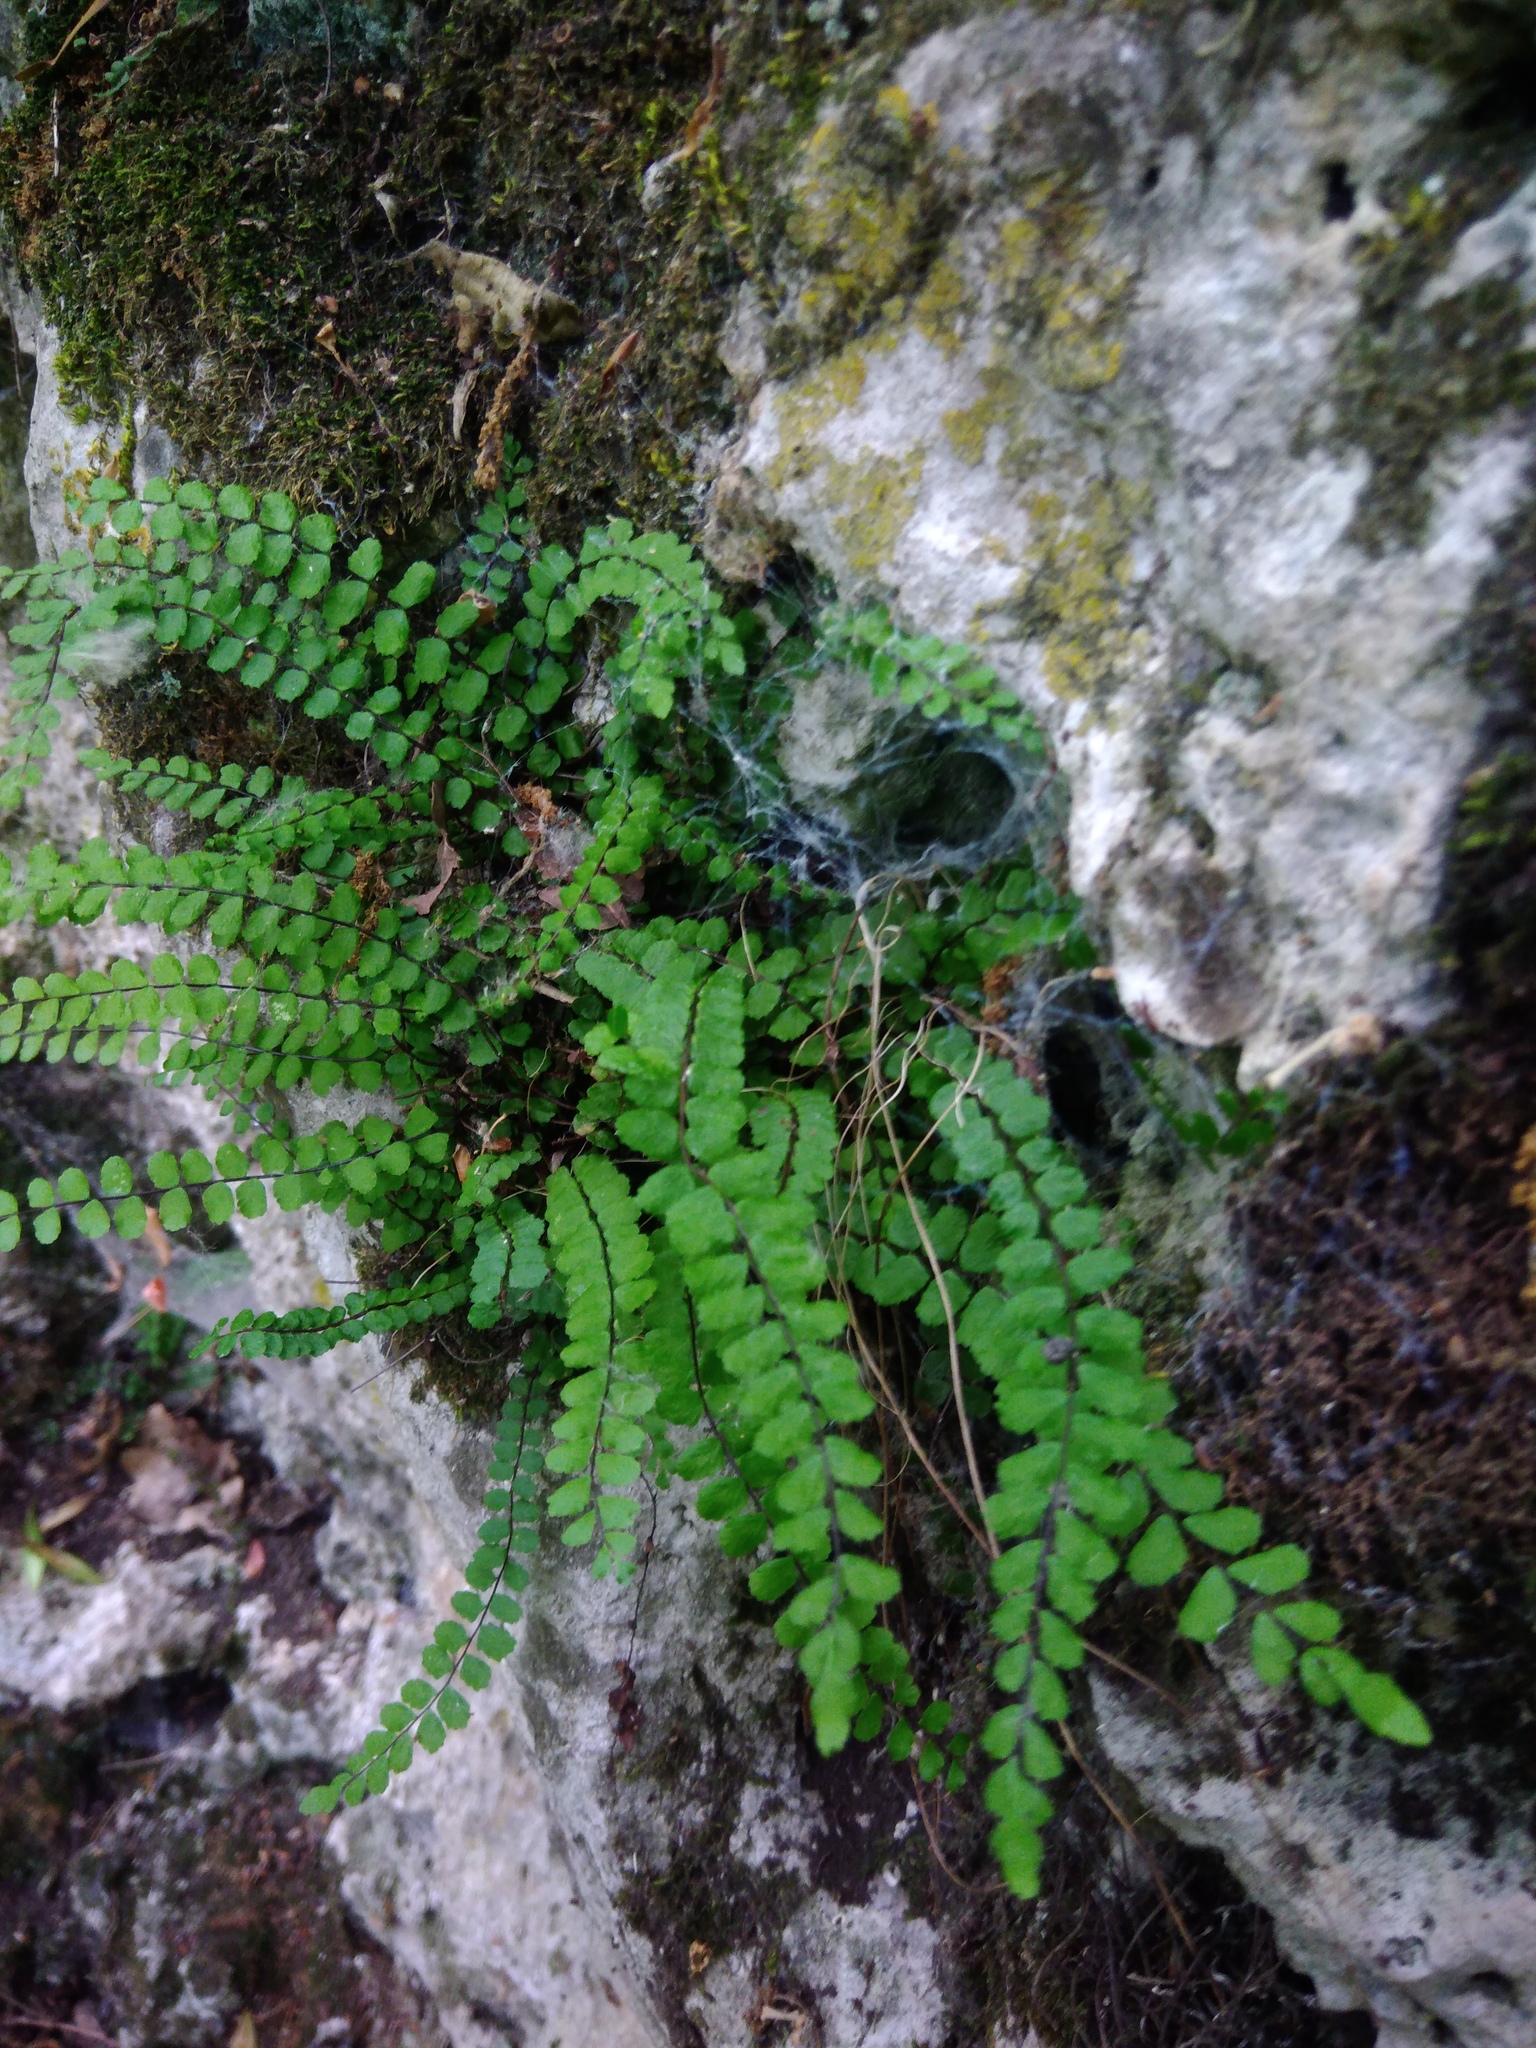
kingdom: Plantae
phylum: Tracheophyta
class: Polypodiopsida
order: Polypodiales
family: Aspleniaceae
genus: Asplenium
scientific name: Asplenium trichomanes
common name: Maidenhair spleenwort
